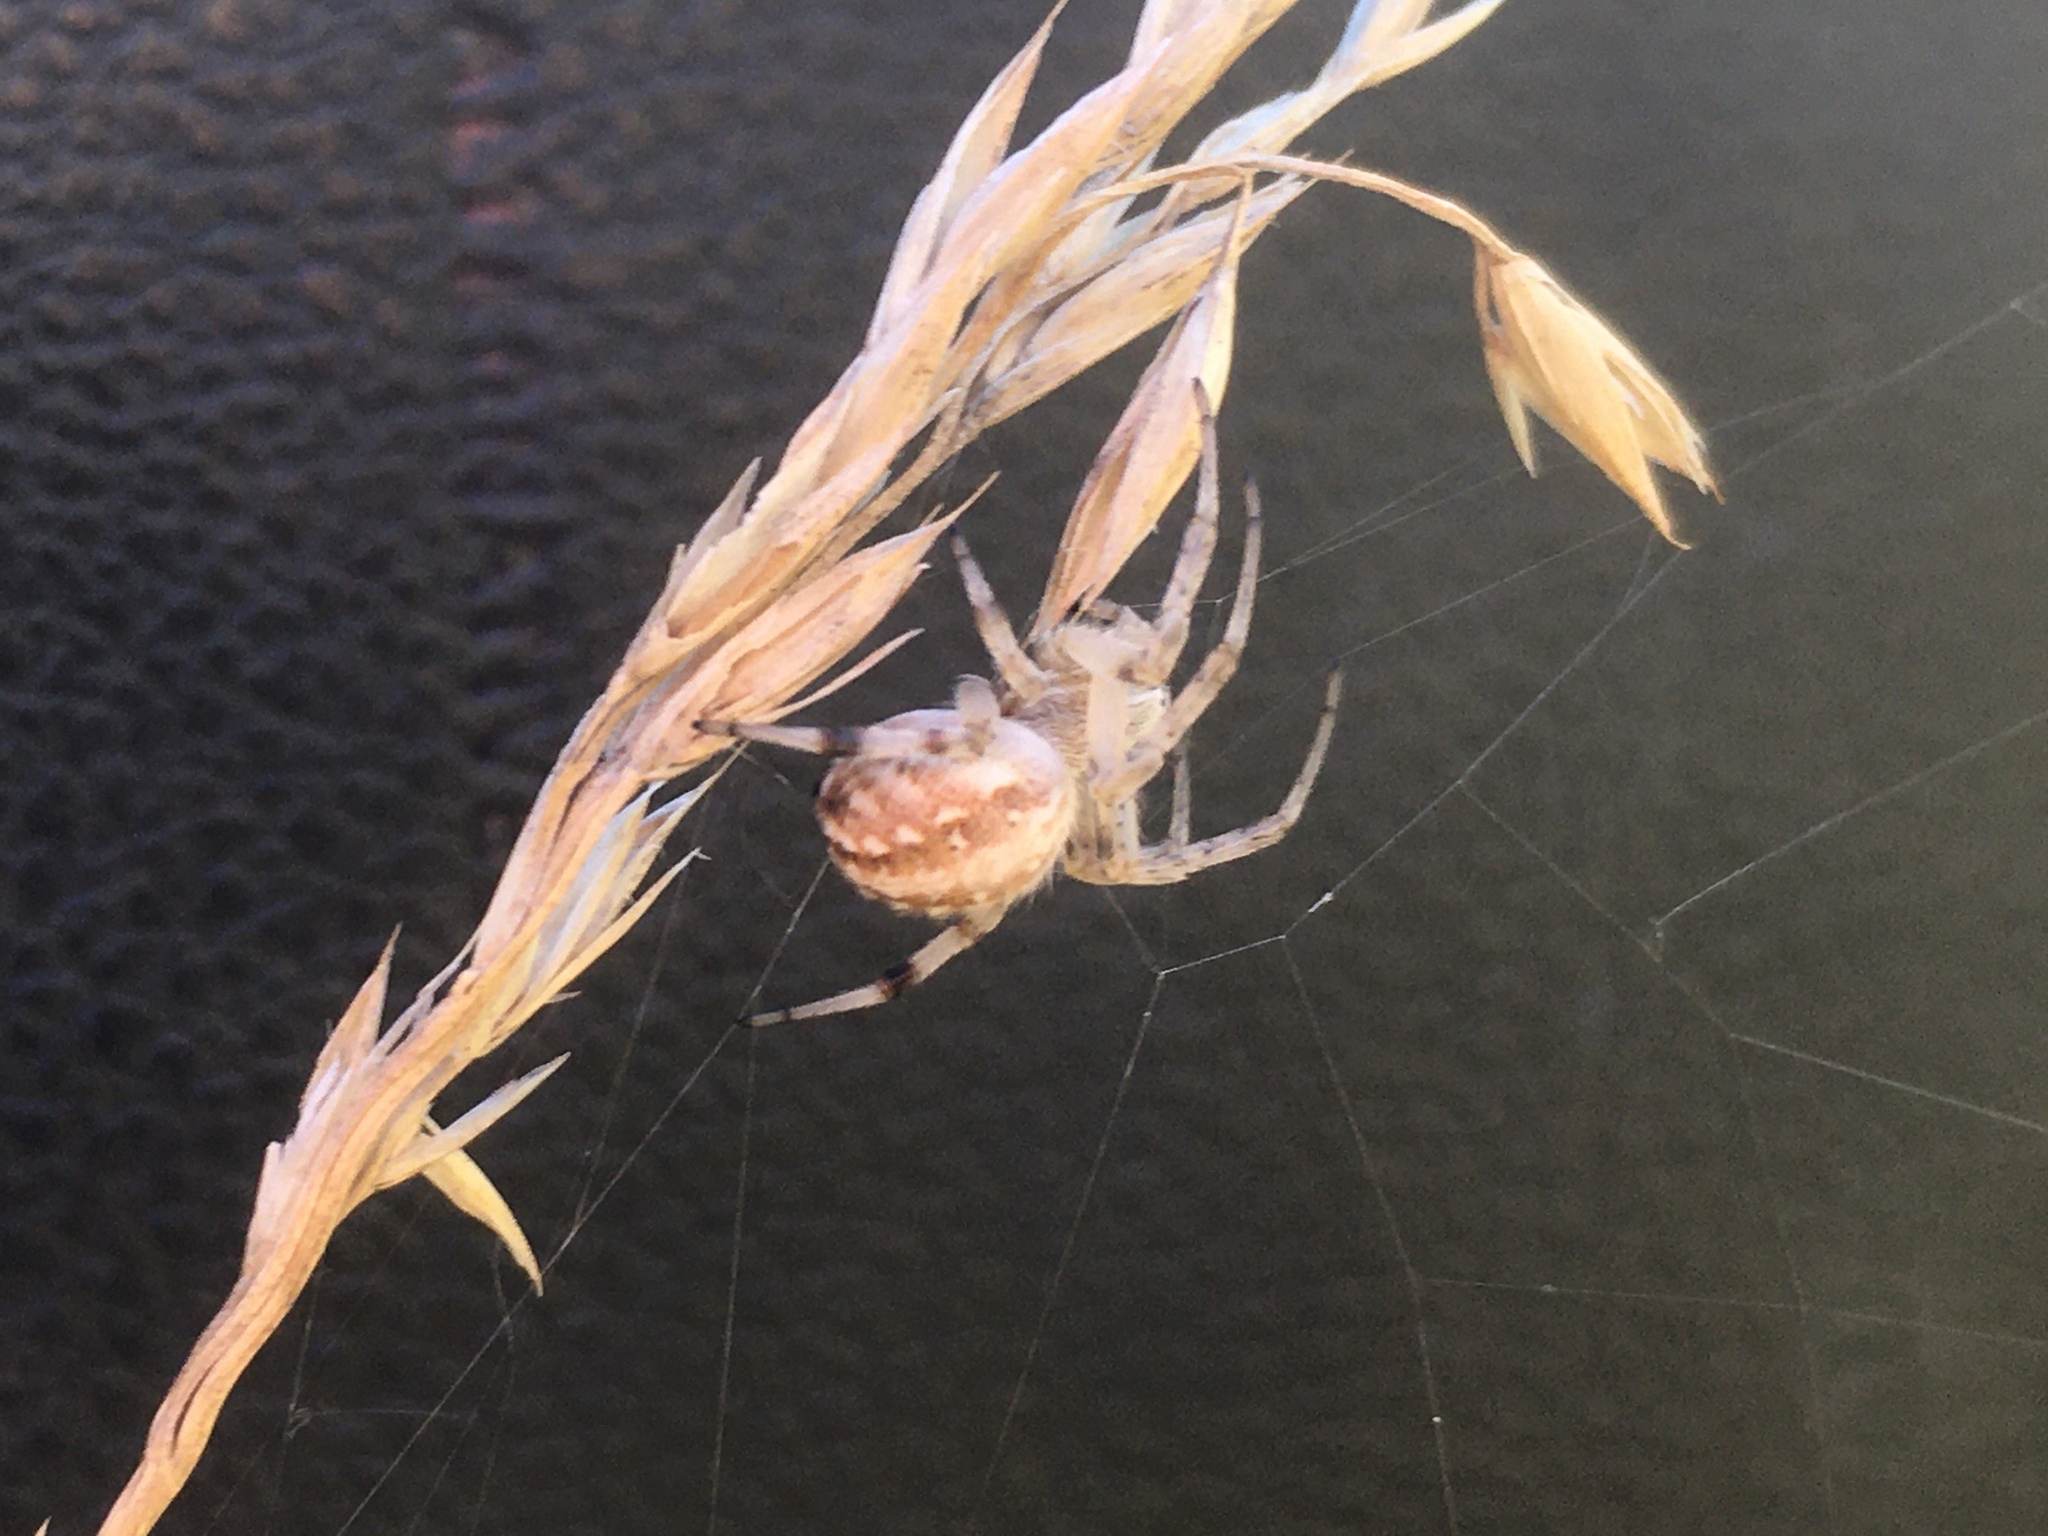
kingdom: Animalia
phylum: Arthropoda
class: Arachnida
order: Araneae
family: Araneidae
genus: Metepeira
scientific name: Metepeira
